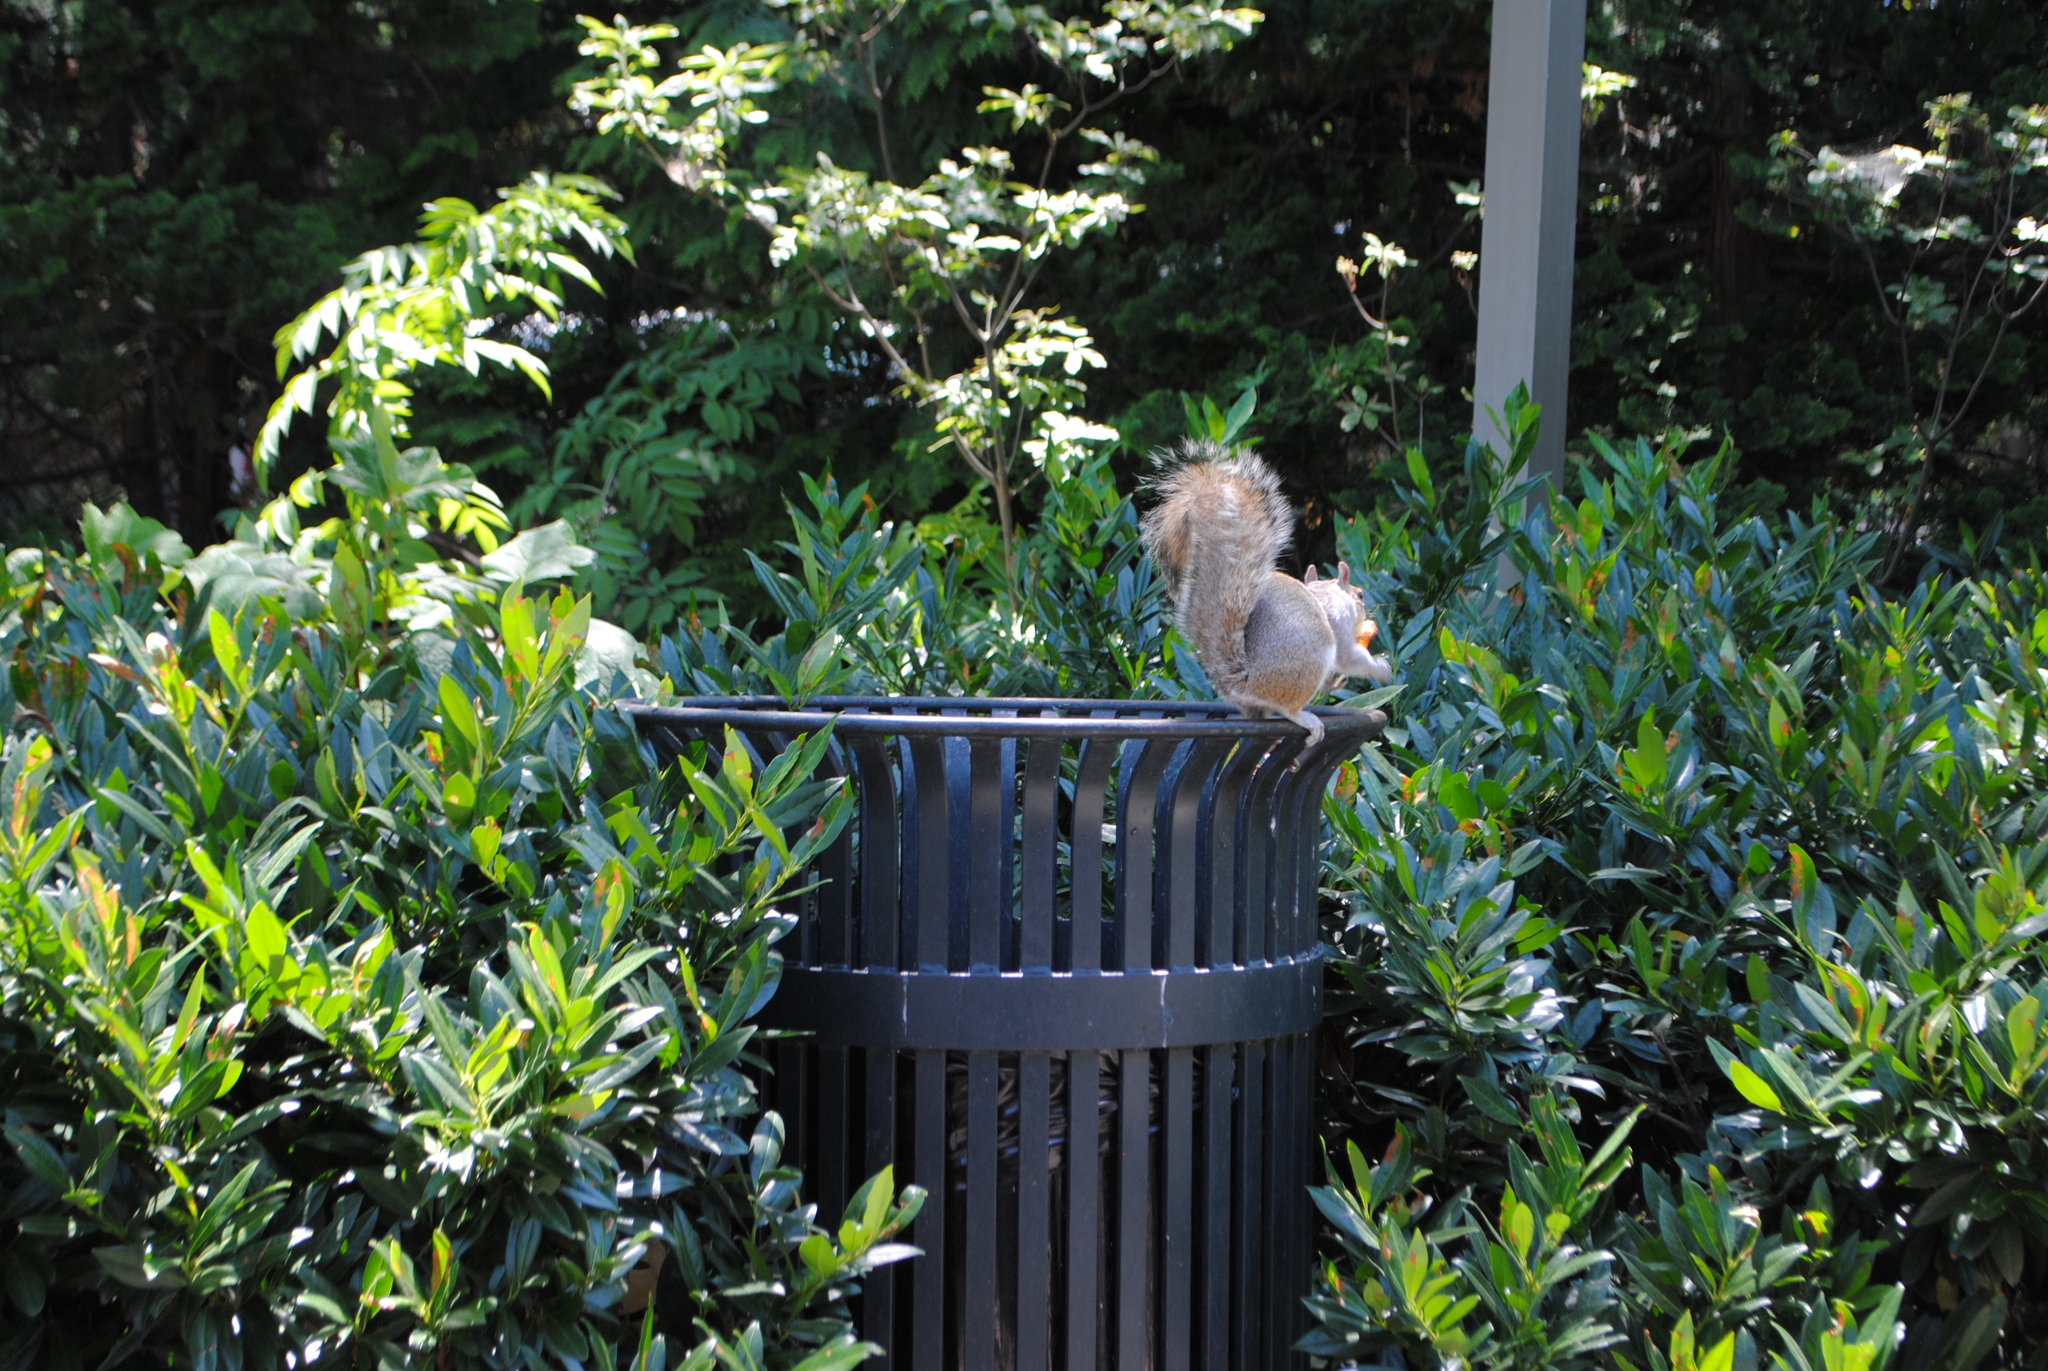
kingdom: Animalia
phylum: Chordata
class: Mammalia
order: Rodentia
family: Sciuridae
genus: Sciurus
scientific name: Sciurus carolinensis
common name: Eastern gray squirrel
